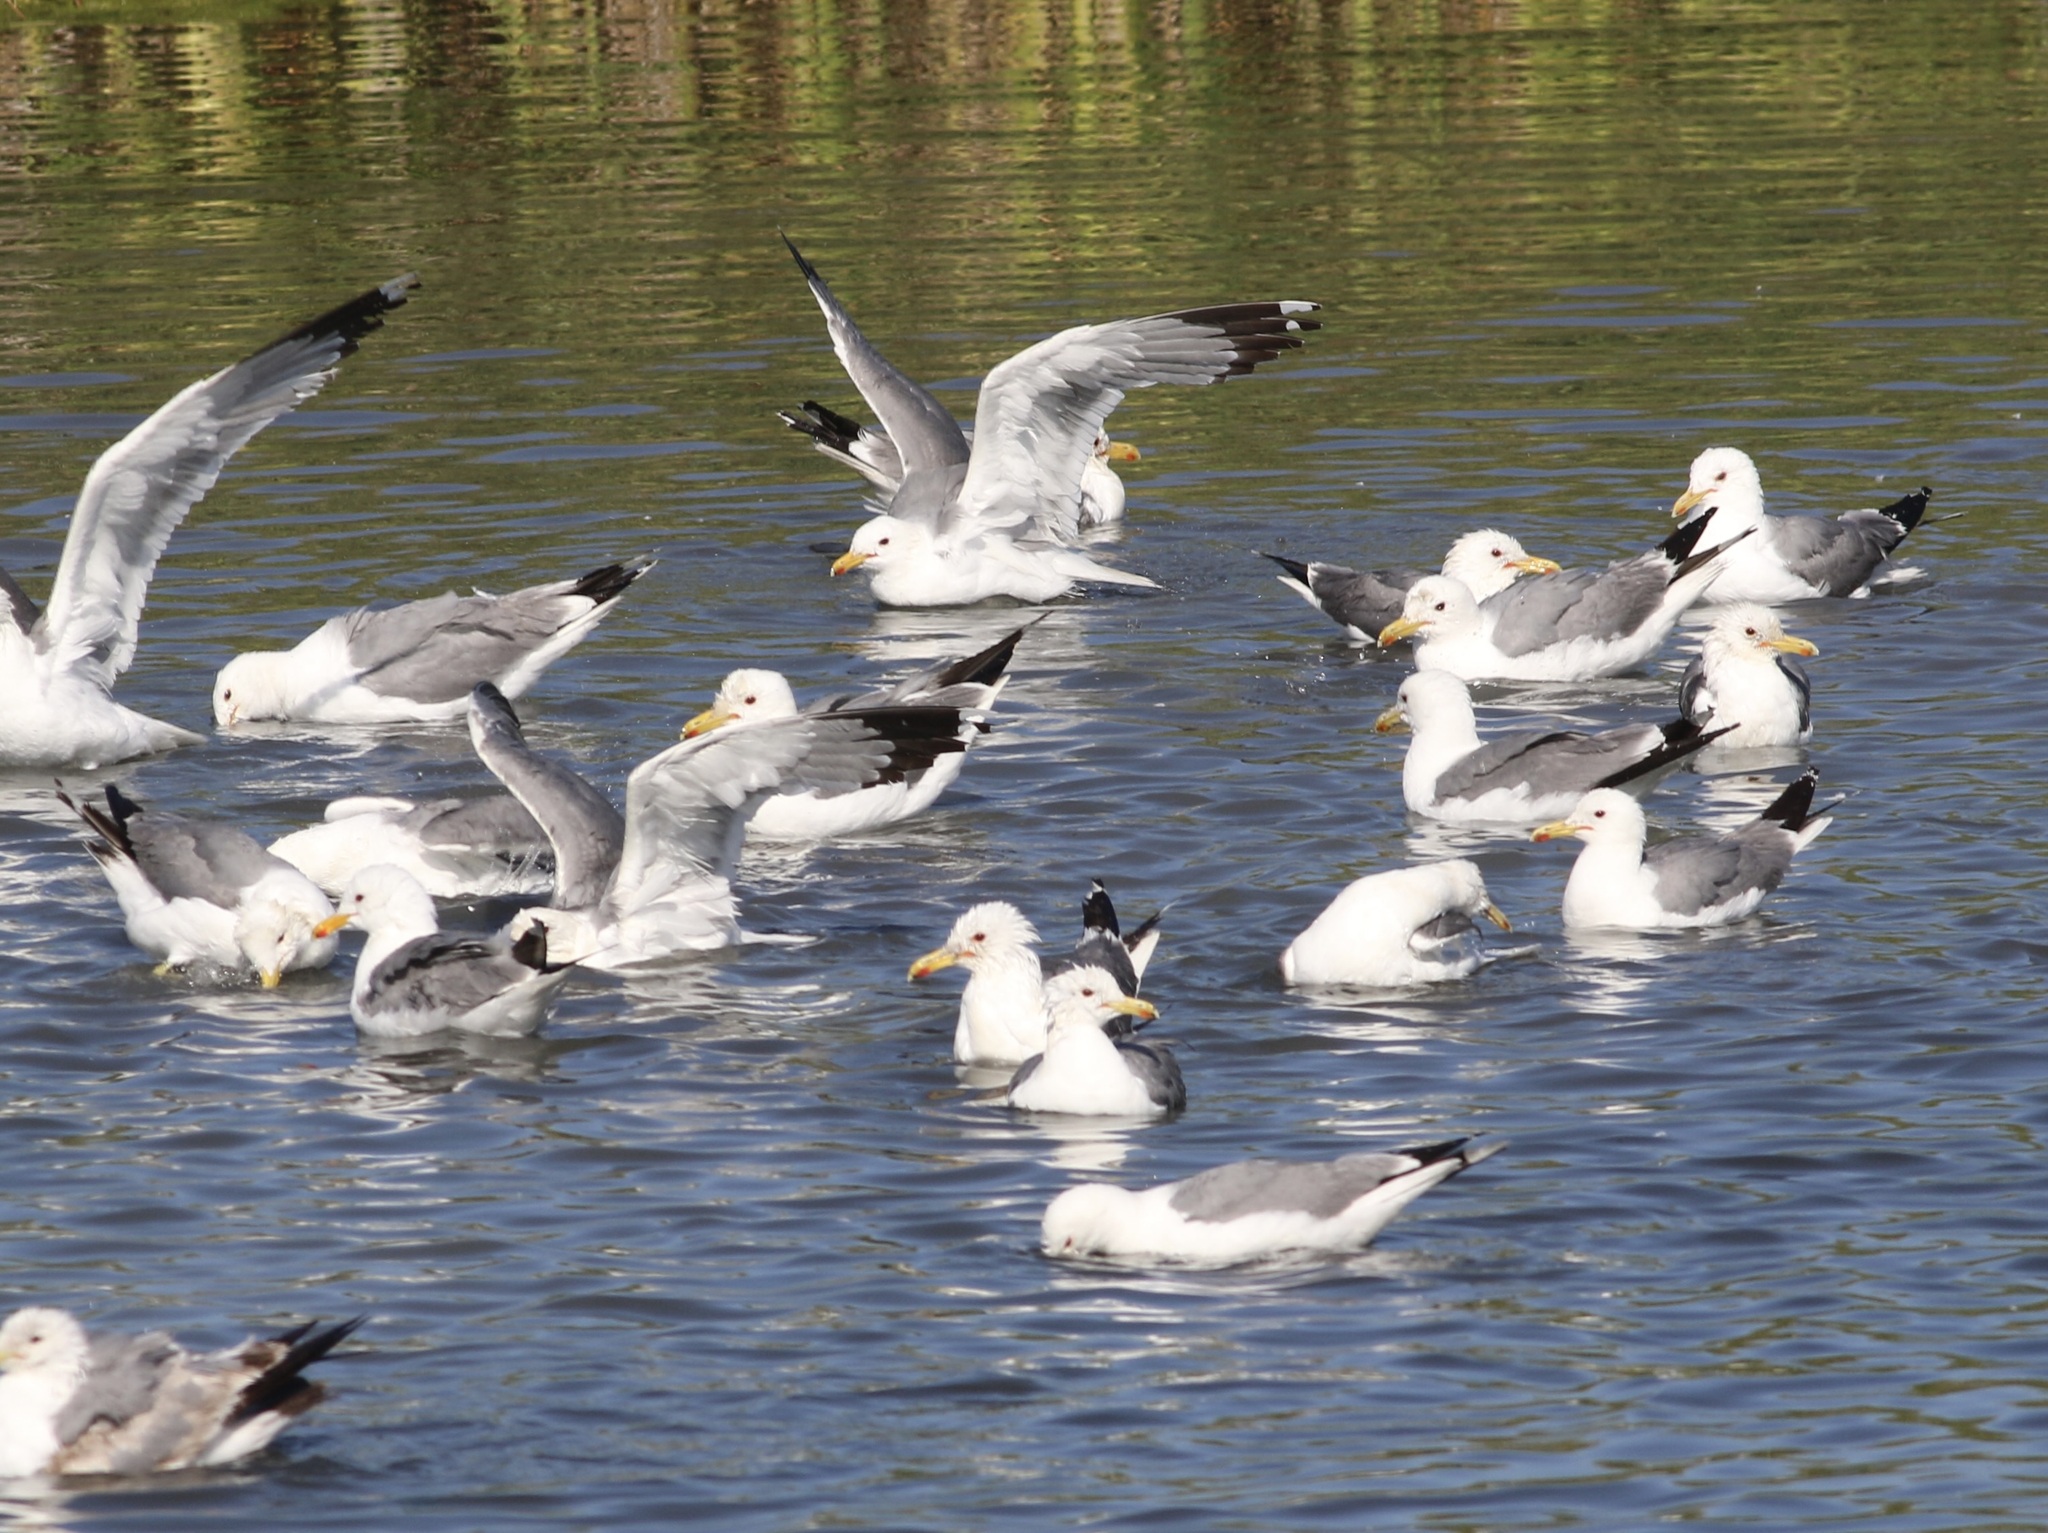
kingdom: Animalia
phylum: Chordata
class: Aves
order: Charadriiformes
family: Laridae
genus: Larus
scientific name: Larus californicus
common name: California gull
